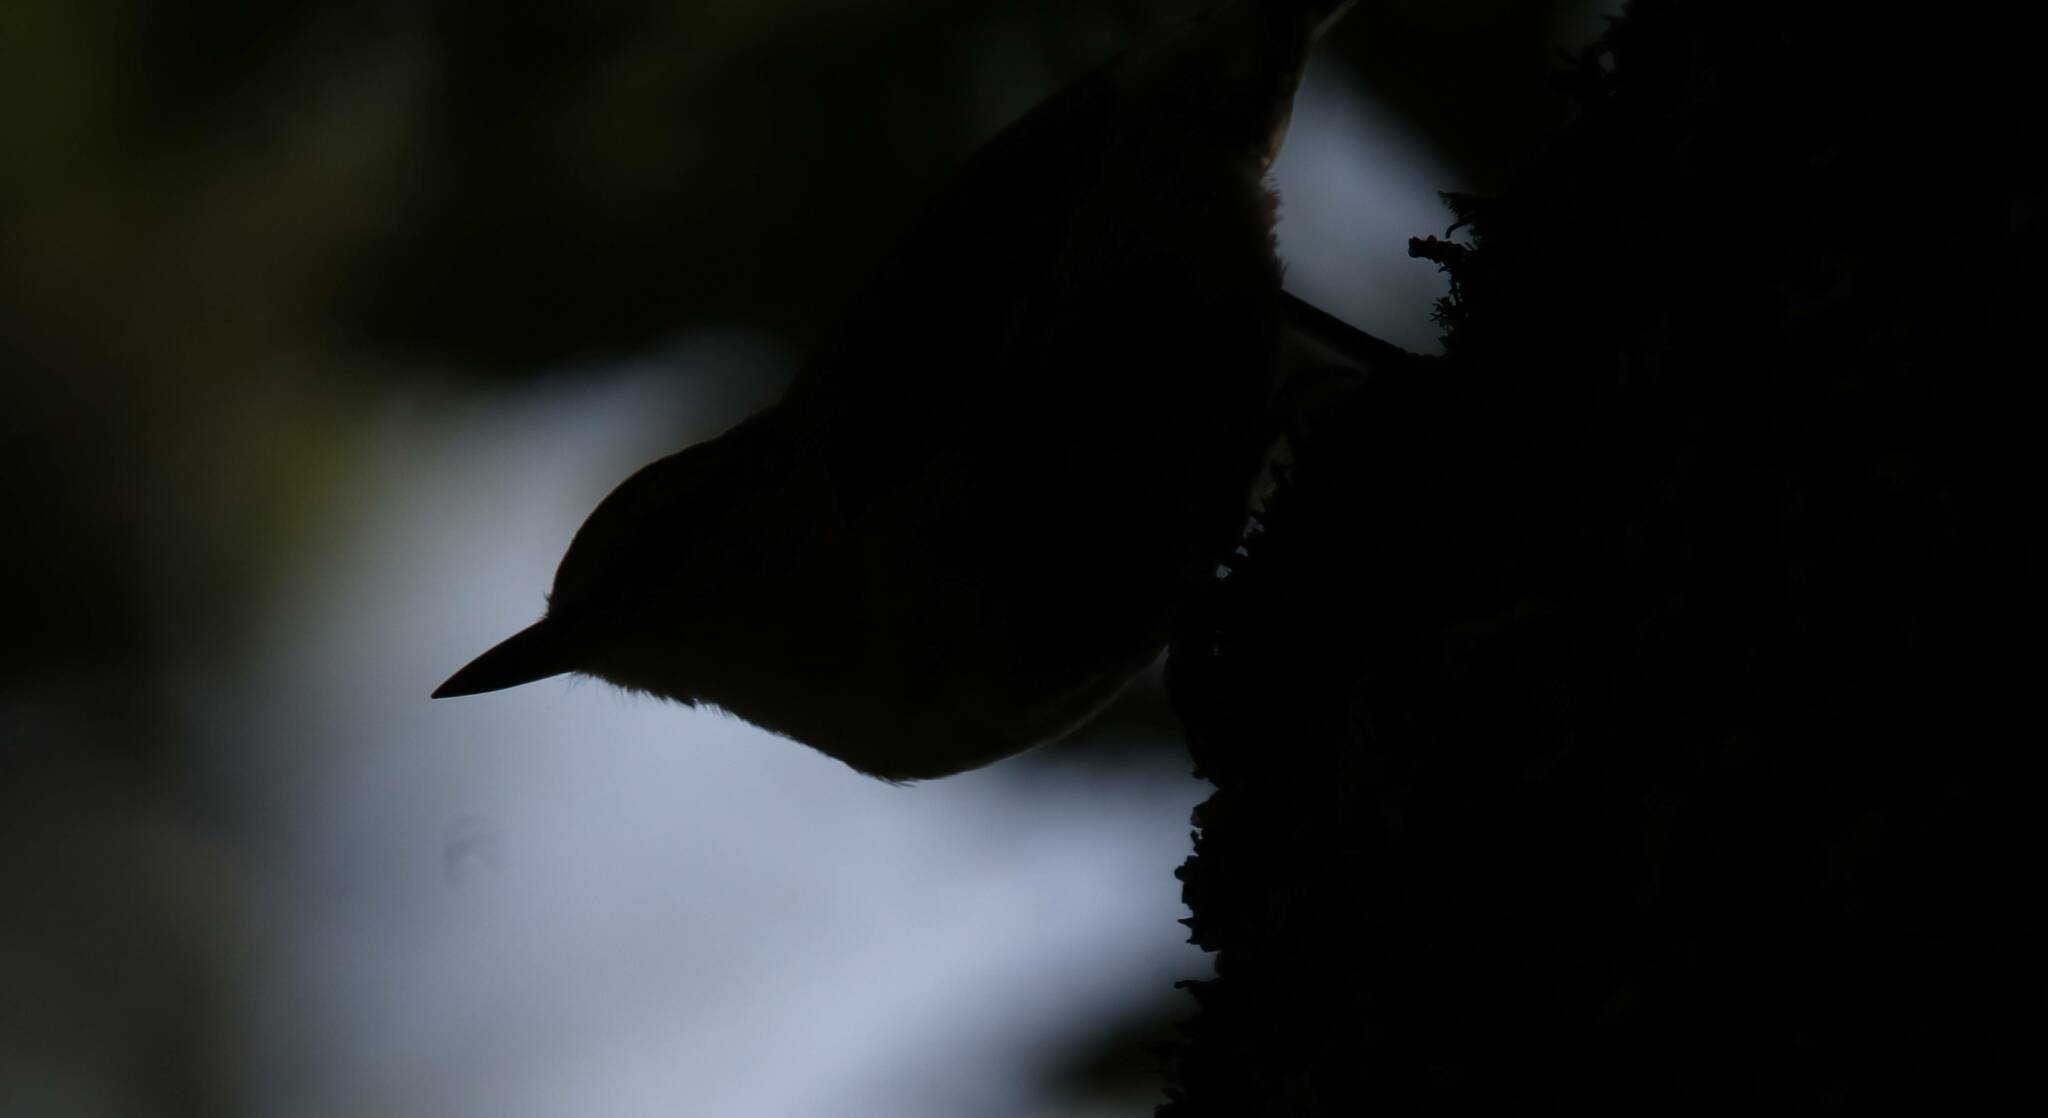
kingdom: Animalia
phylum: Chordata
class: Aves
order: Passeriformes
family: Sittidae
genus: Sitta
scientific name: Sitta ledanti
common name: Algerian nuthatch
